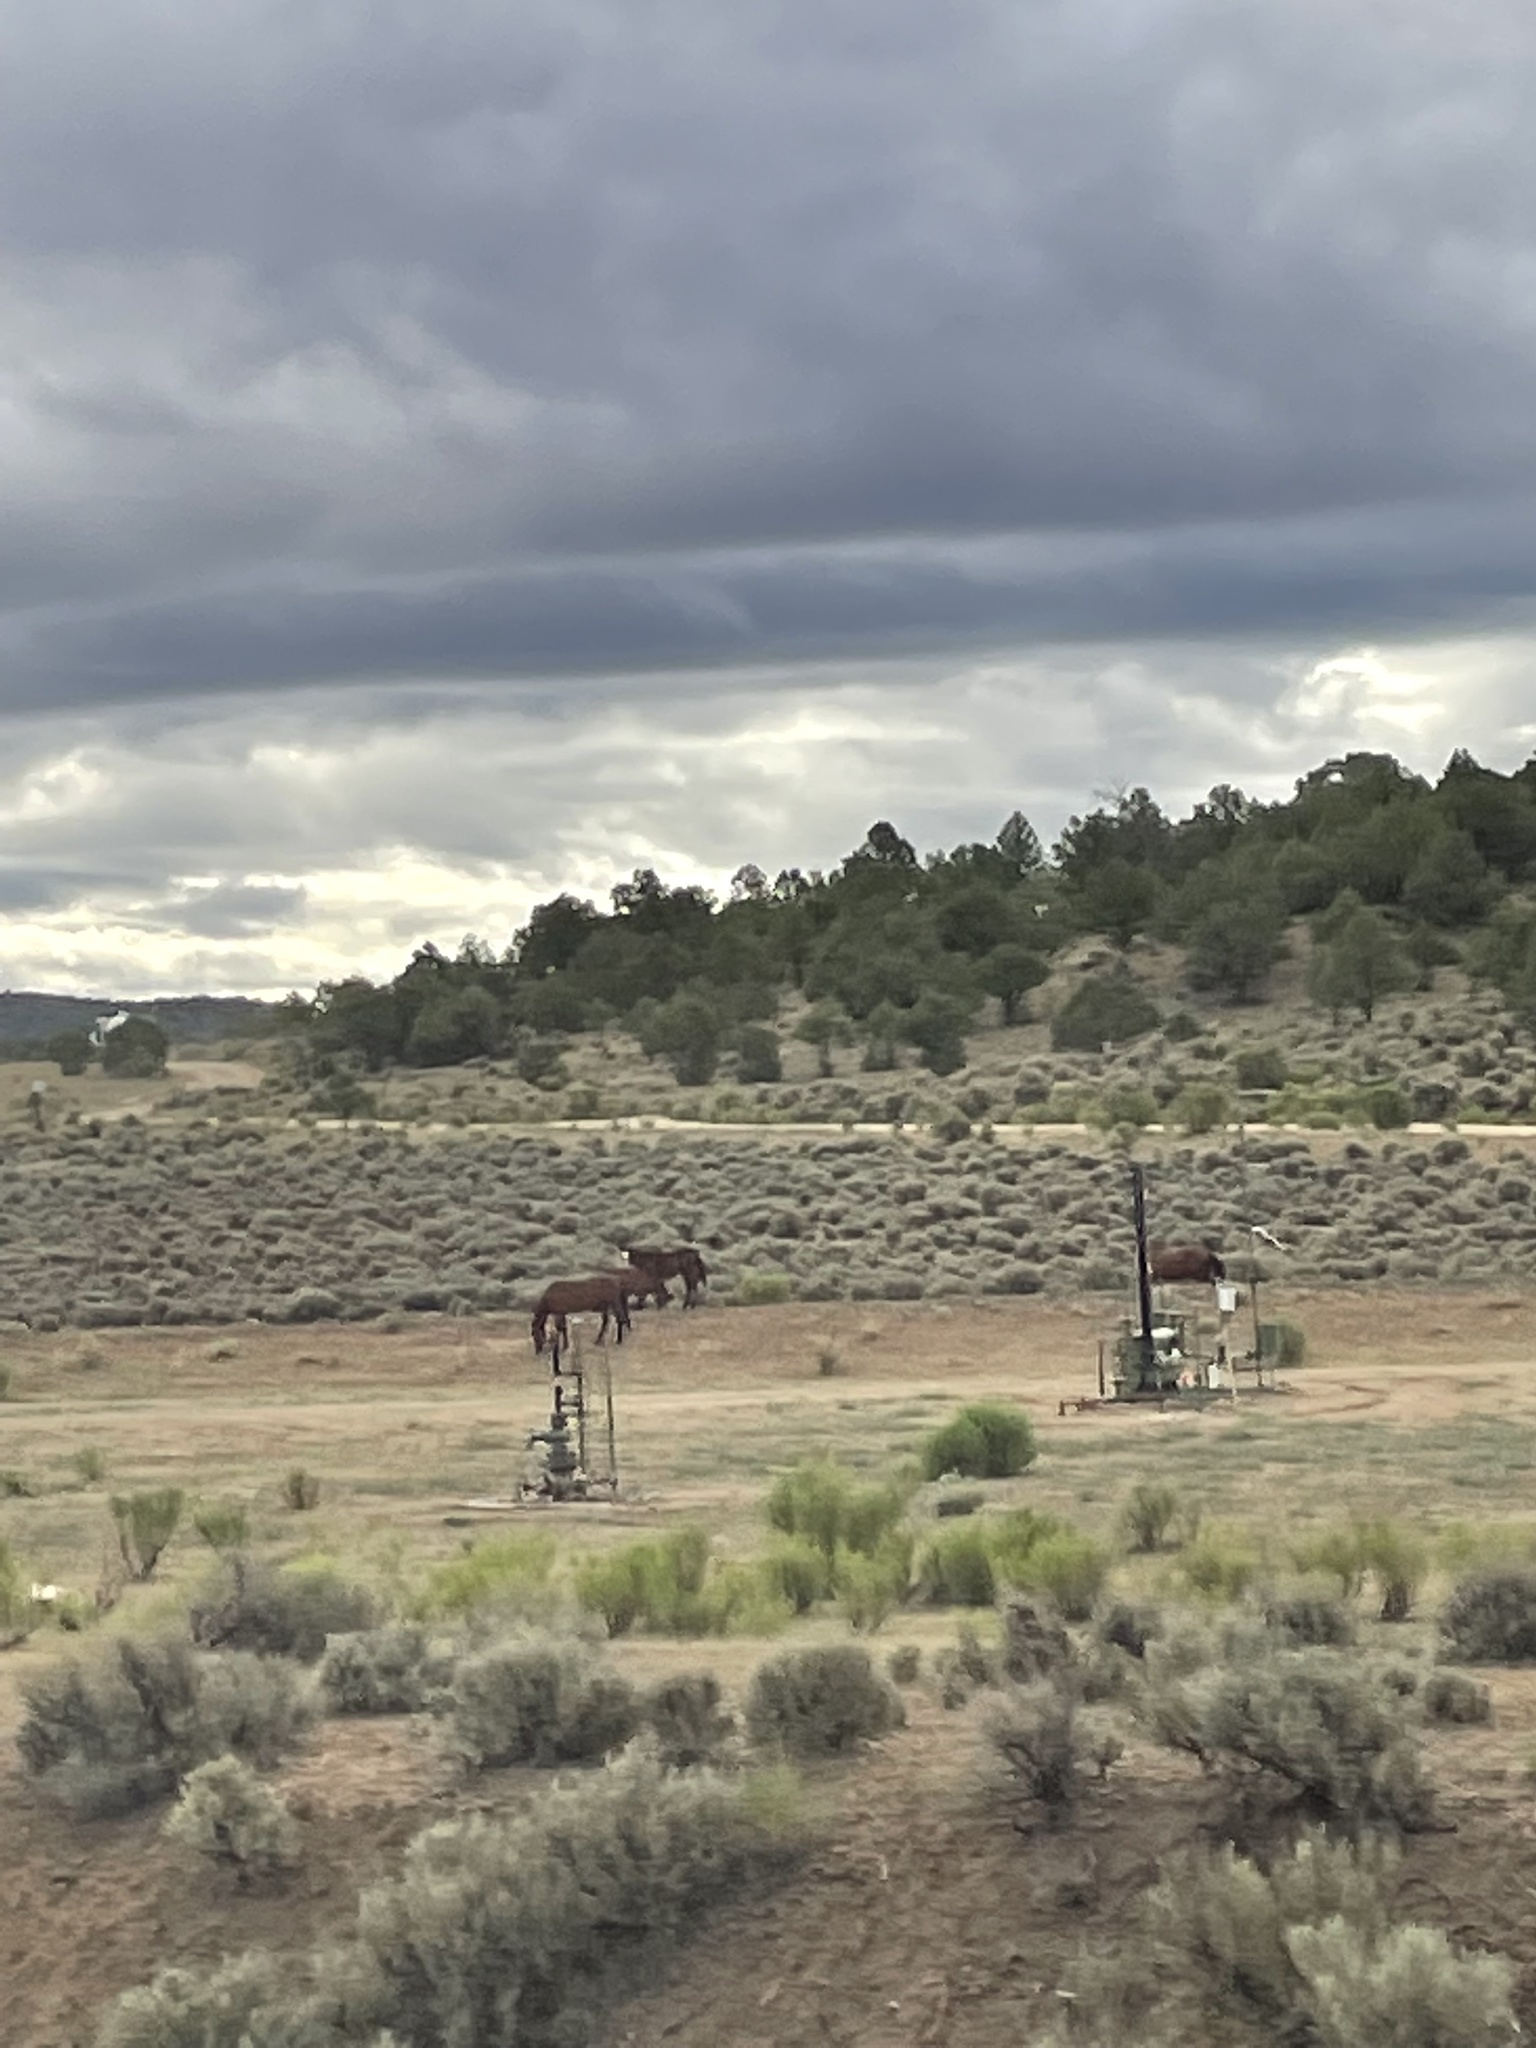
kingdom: Animalia
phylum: Chordata
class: Mammalia
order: Perissodactyla
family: Equidae
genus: Equus
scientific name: Equus caballus
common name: Horse
